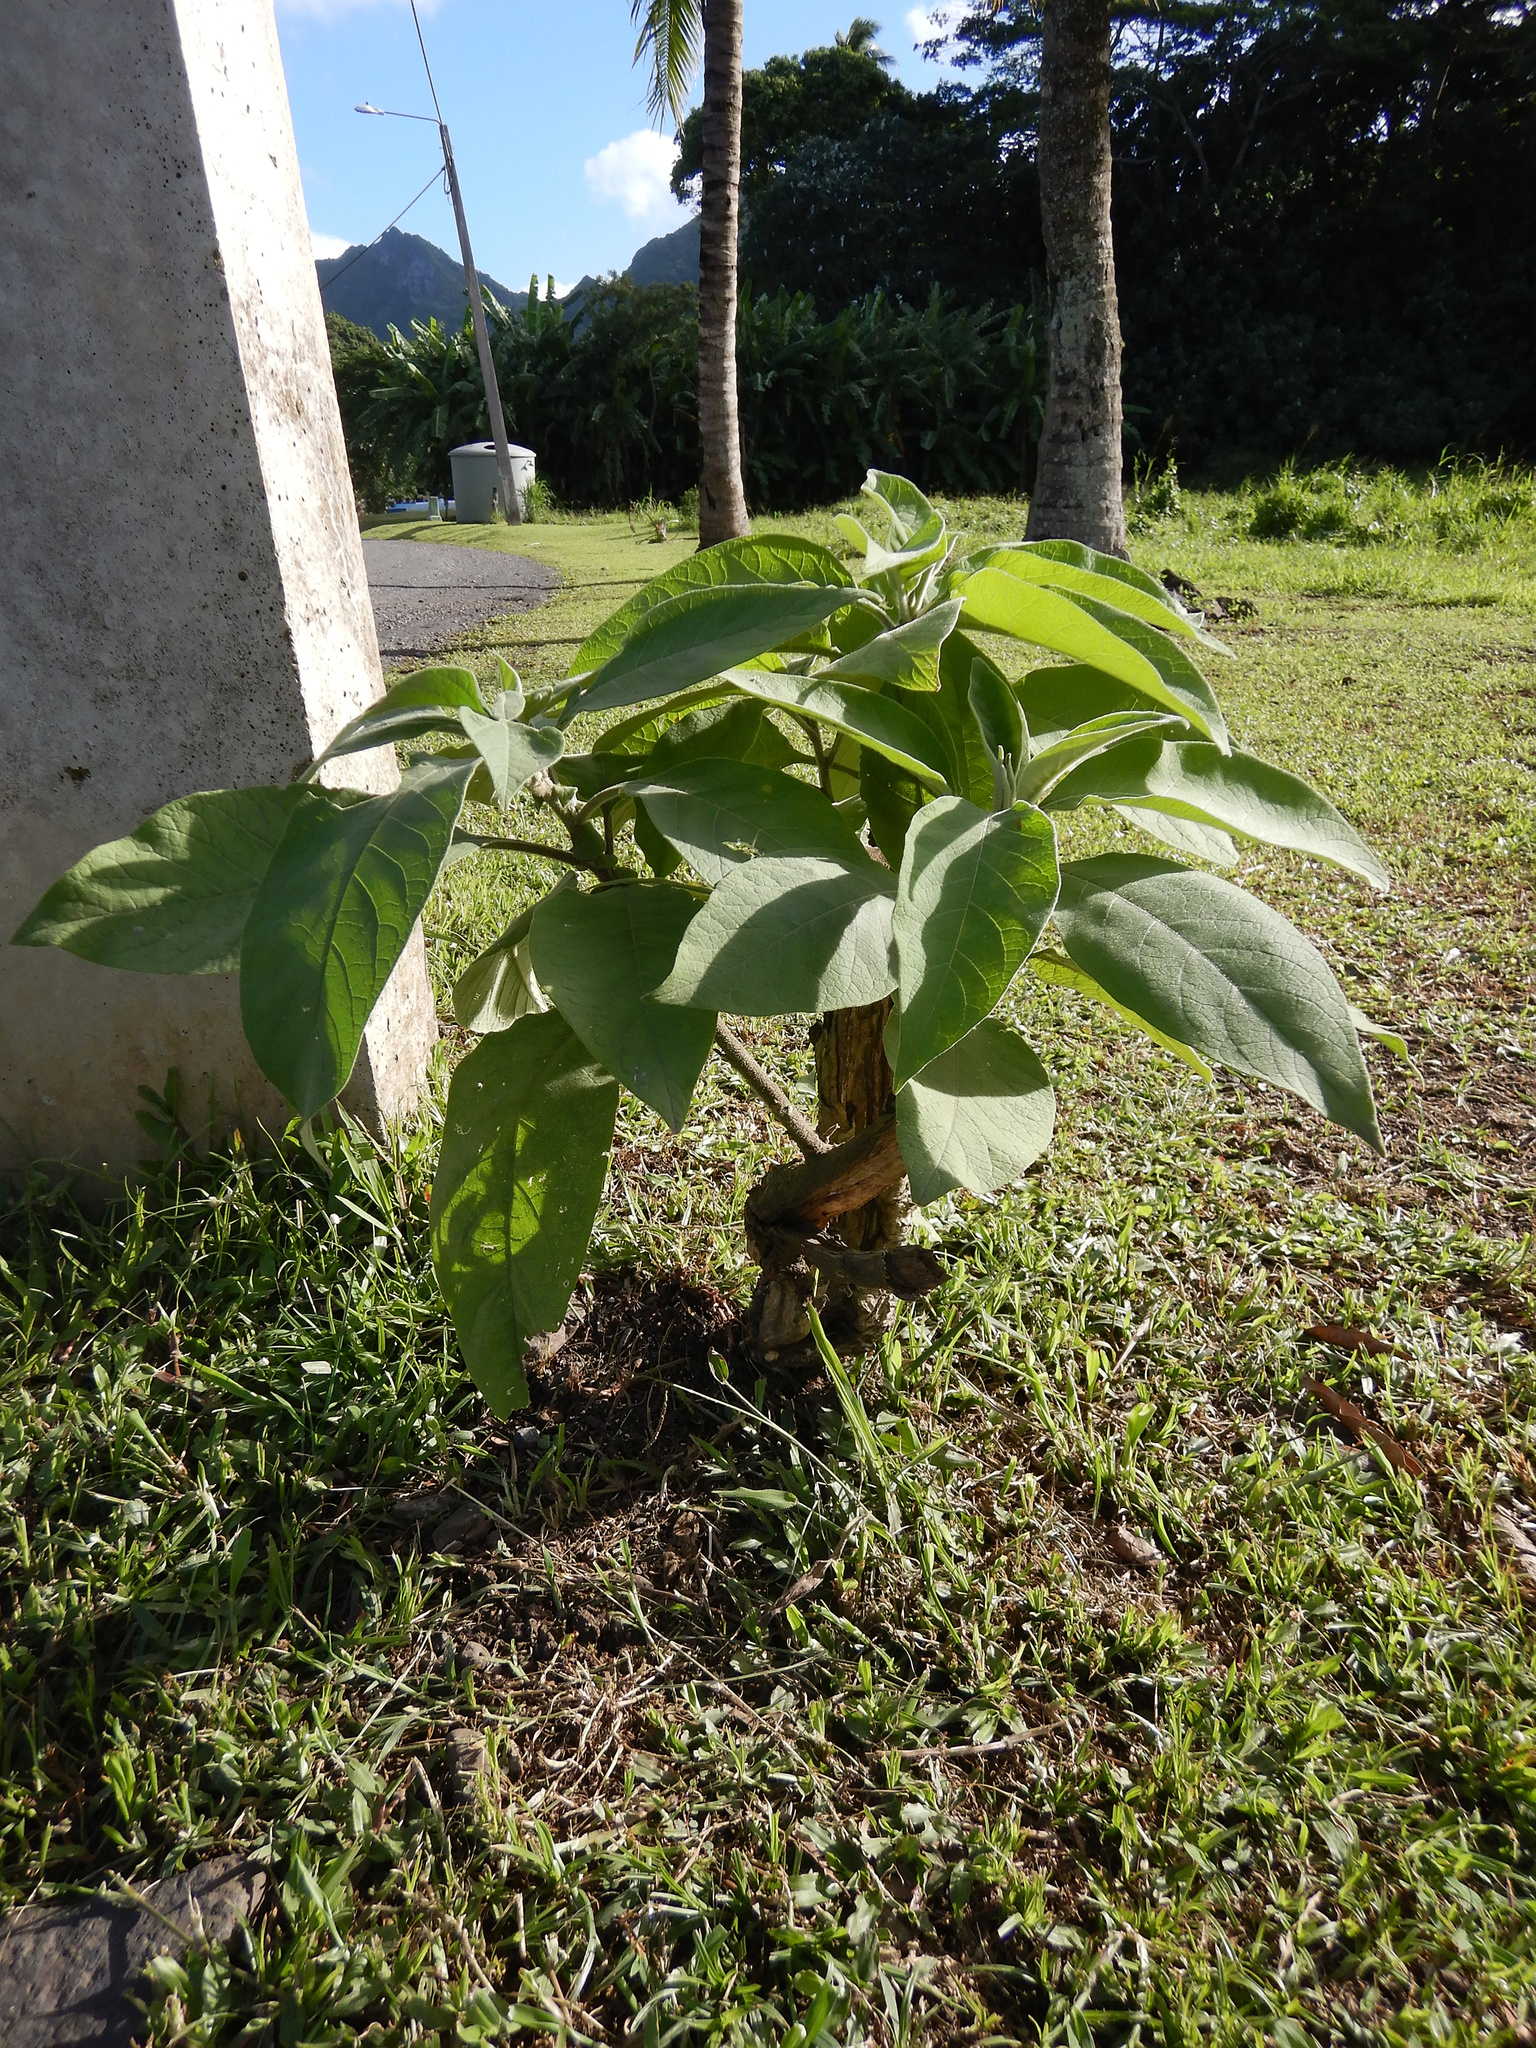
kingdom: Plantae
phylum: Tracheophyta
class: Magnoliopsida
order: Solanales
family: Solanaceae
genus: Solanum
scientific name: Solanum mauritianum
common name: Earleaf nightshade
